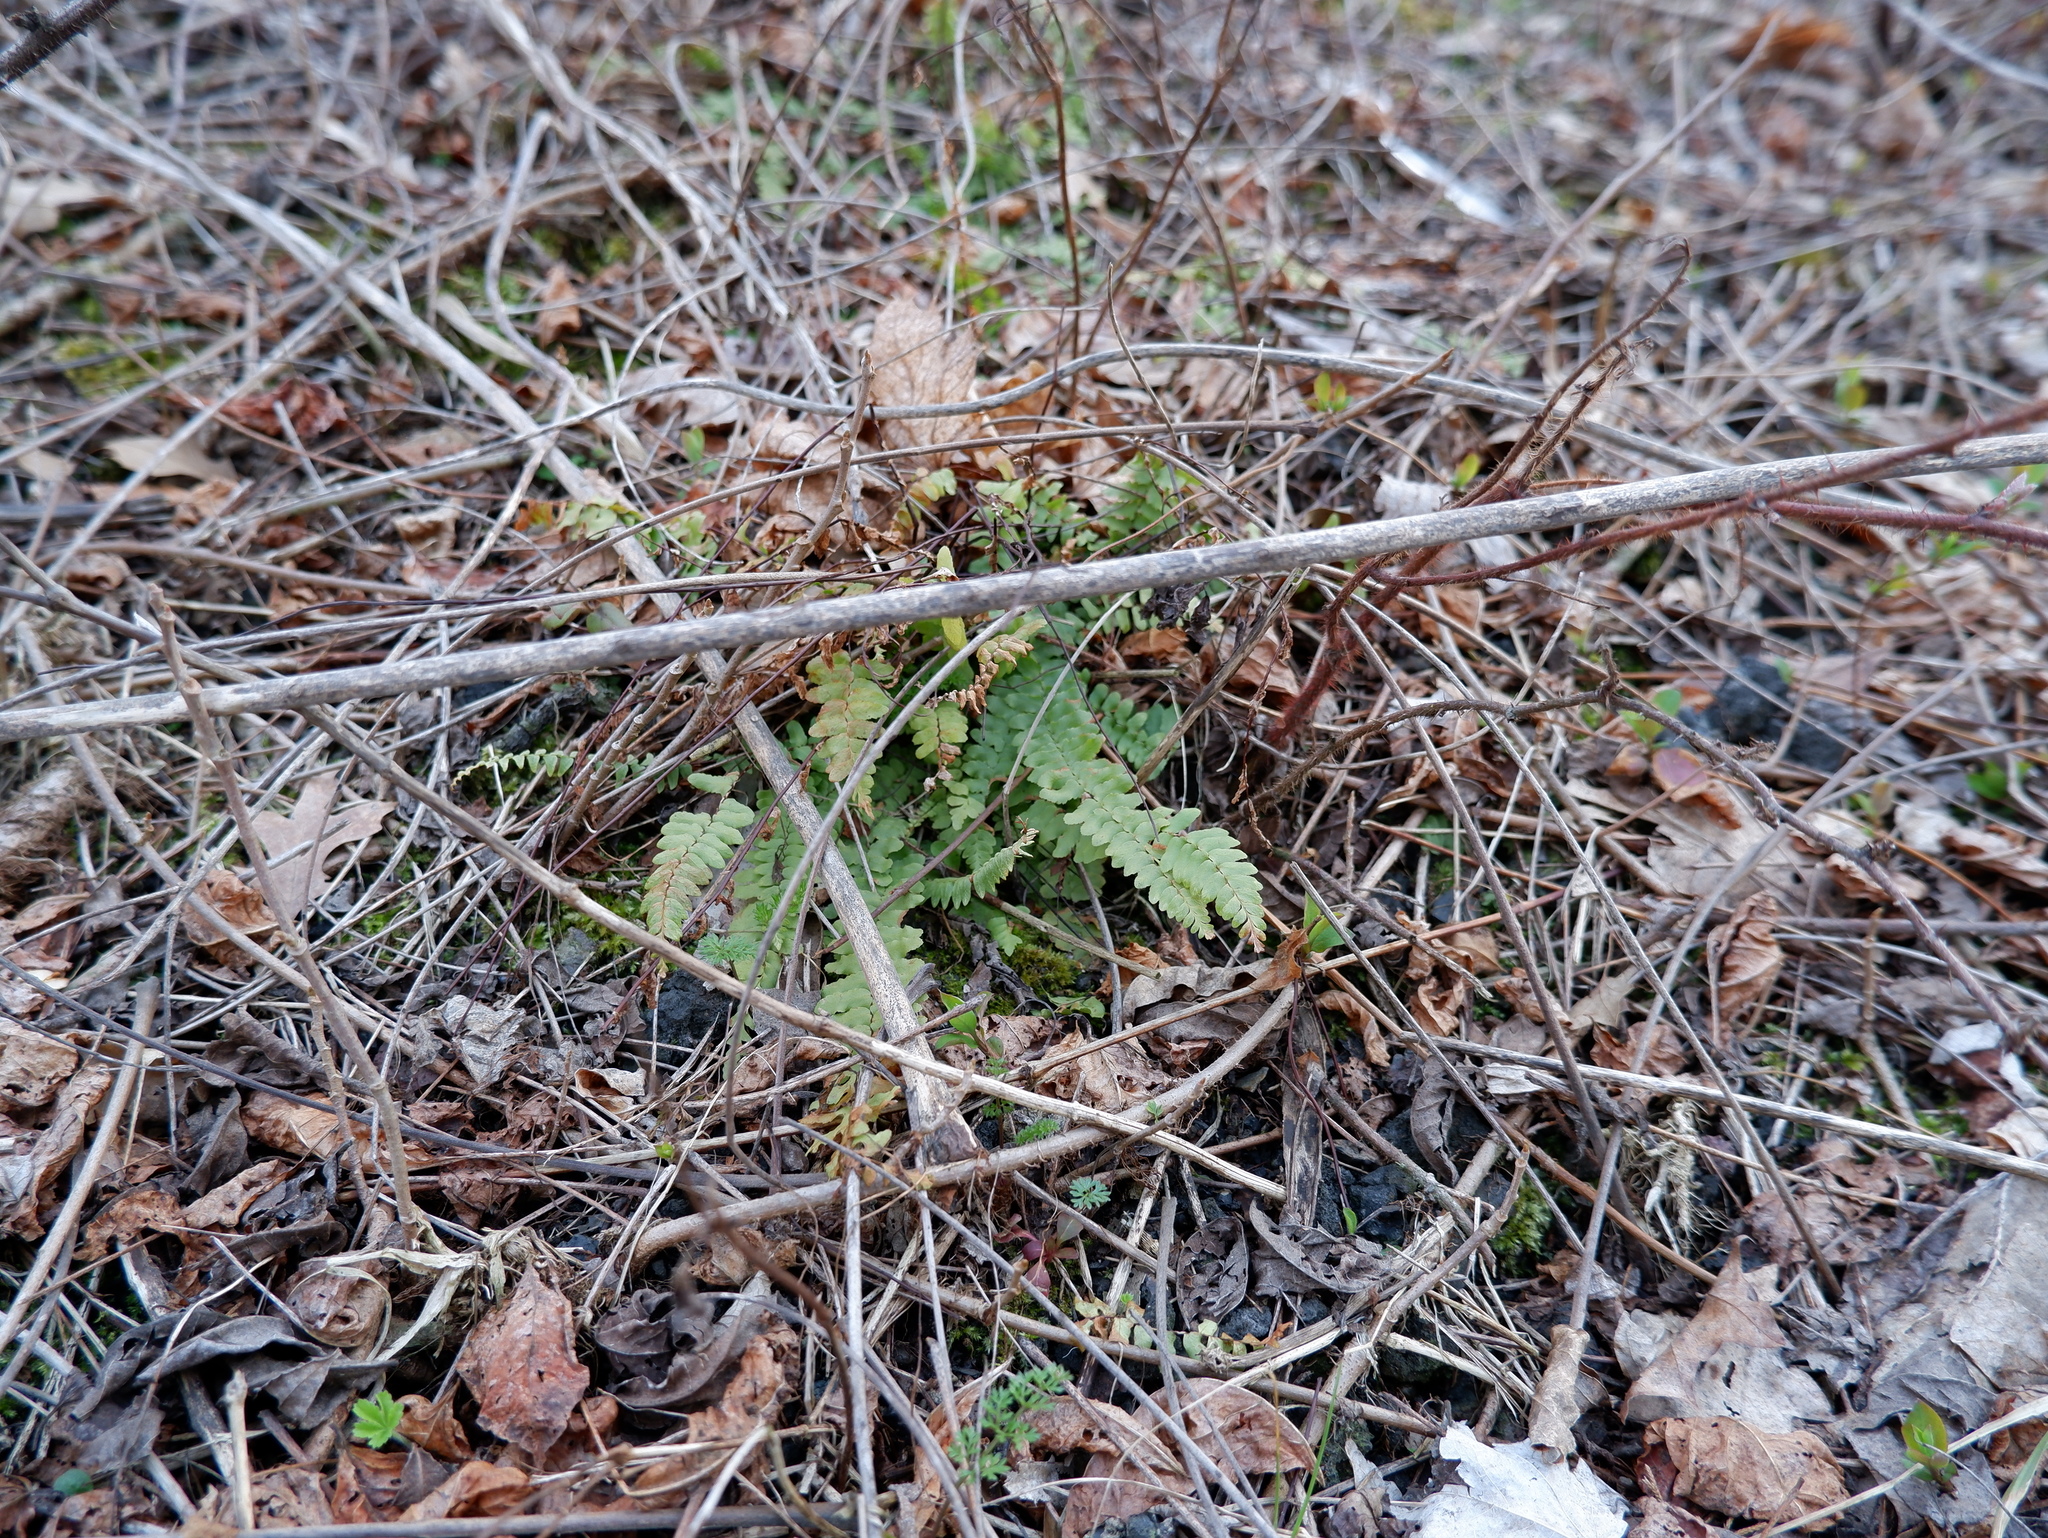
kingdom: Plantae
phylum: Tracheophyta
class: Polypodiopsida
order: Polypodiales
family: Aspleniaceae
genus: Asplenium
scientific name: Asplenium platyneuron
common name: Ebony spleenwort
